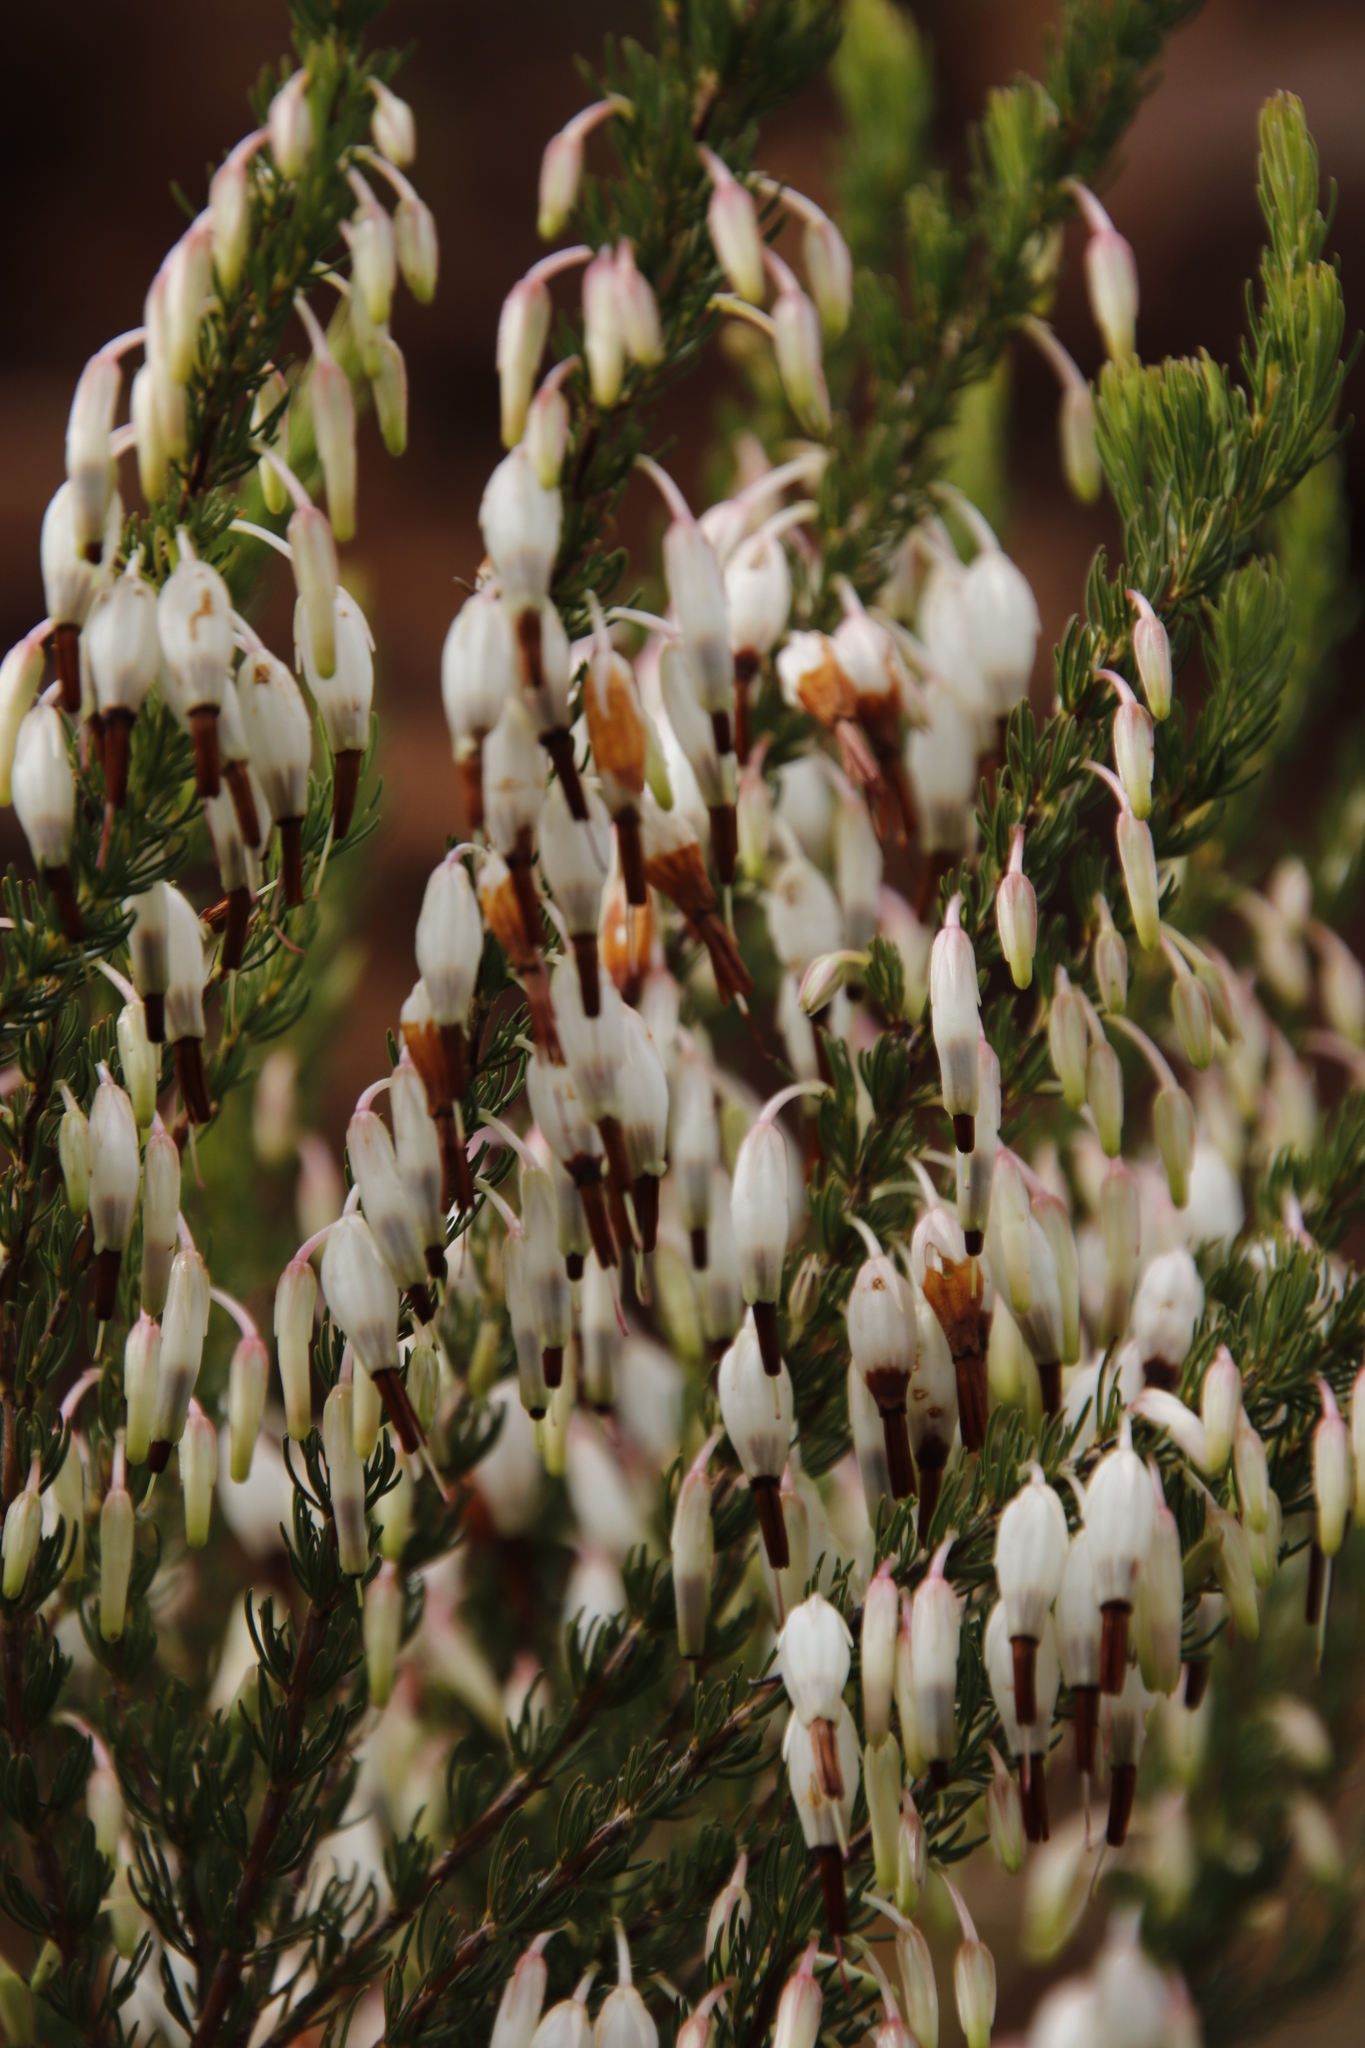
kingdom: Plantae
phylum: Tracheophyta
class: Magnoliopsida
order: Ericales
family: Ericaceae
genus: Erica
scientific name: Erica plukenetii
